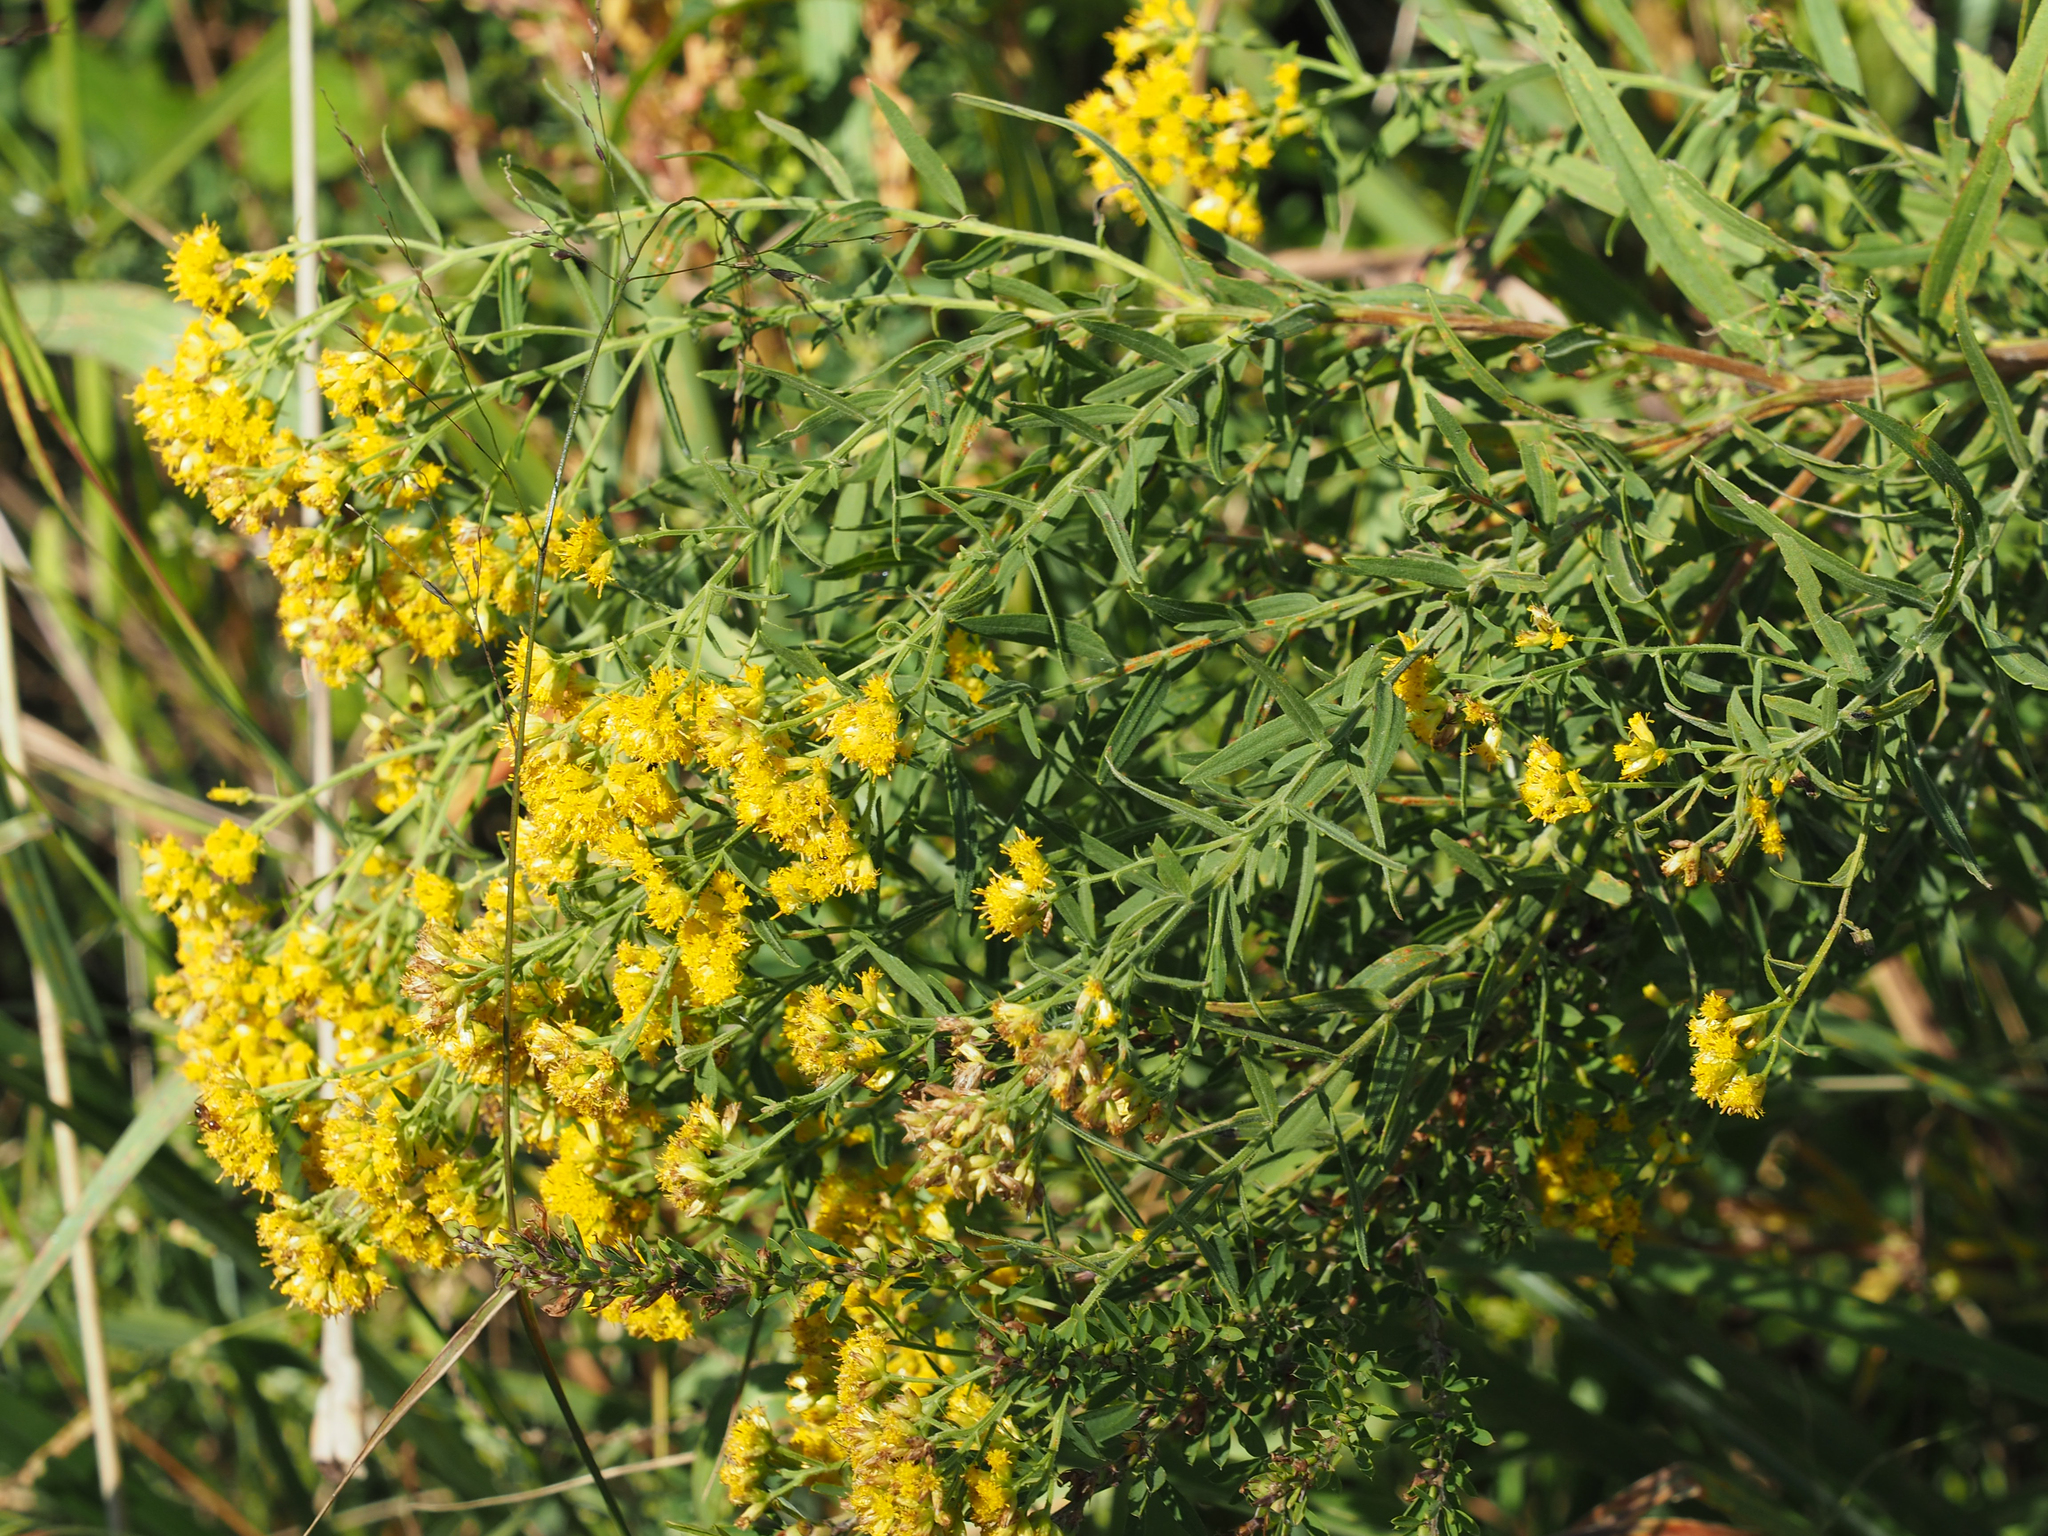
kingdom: Plantae
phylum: Tracheophyta
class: Magnoliopsida
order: Asterales
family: Asteraceae
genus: Euthamia
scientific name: Euthamia graminifolia
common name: Common goldentop
